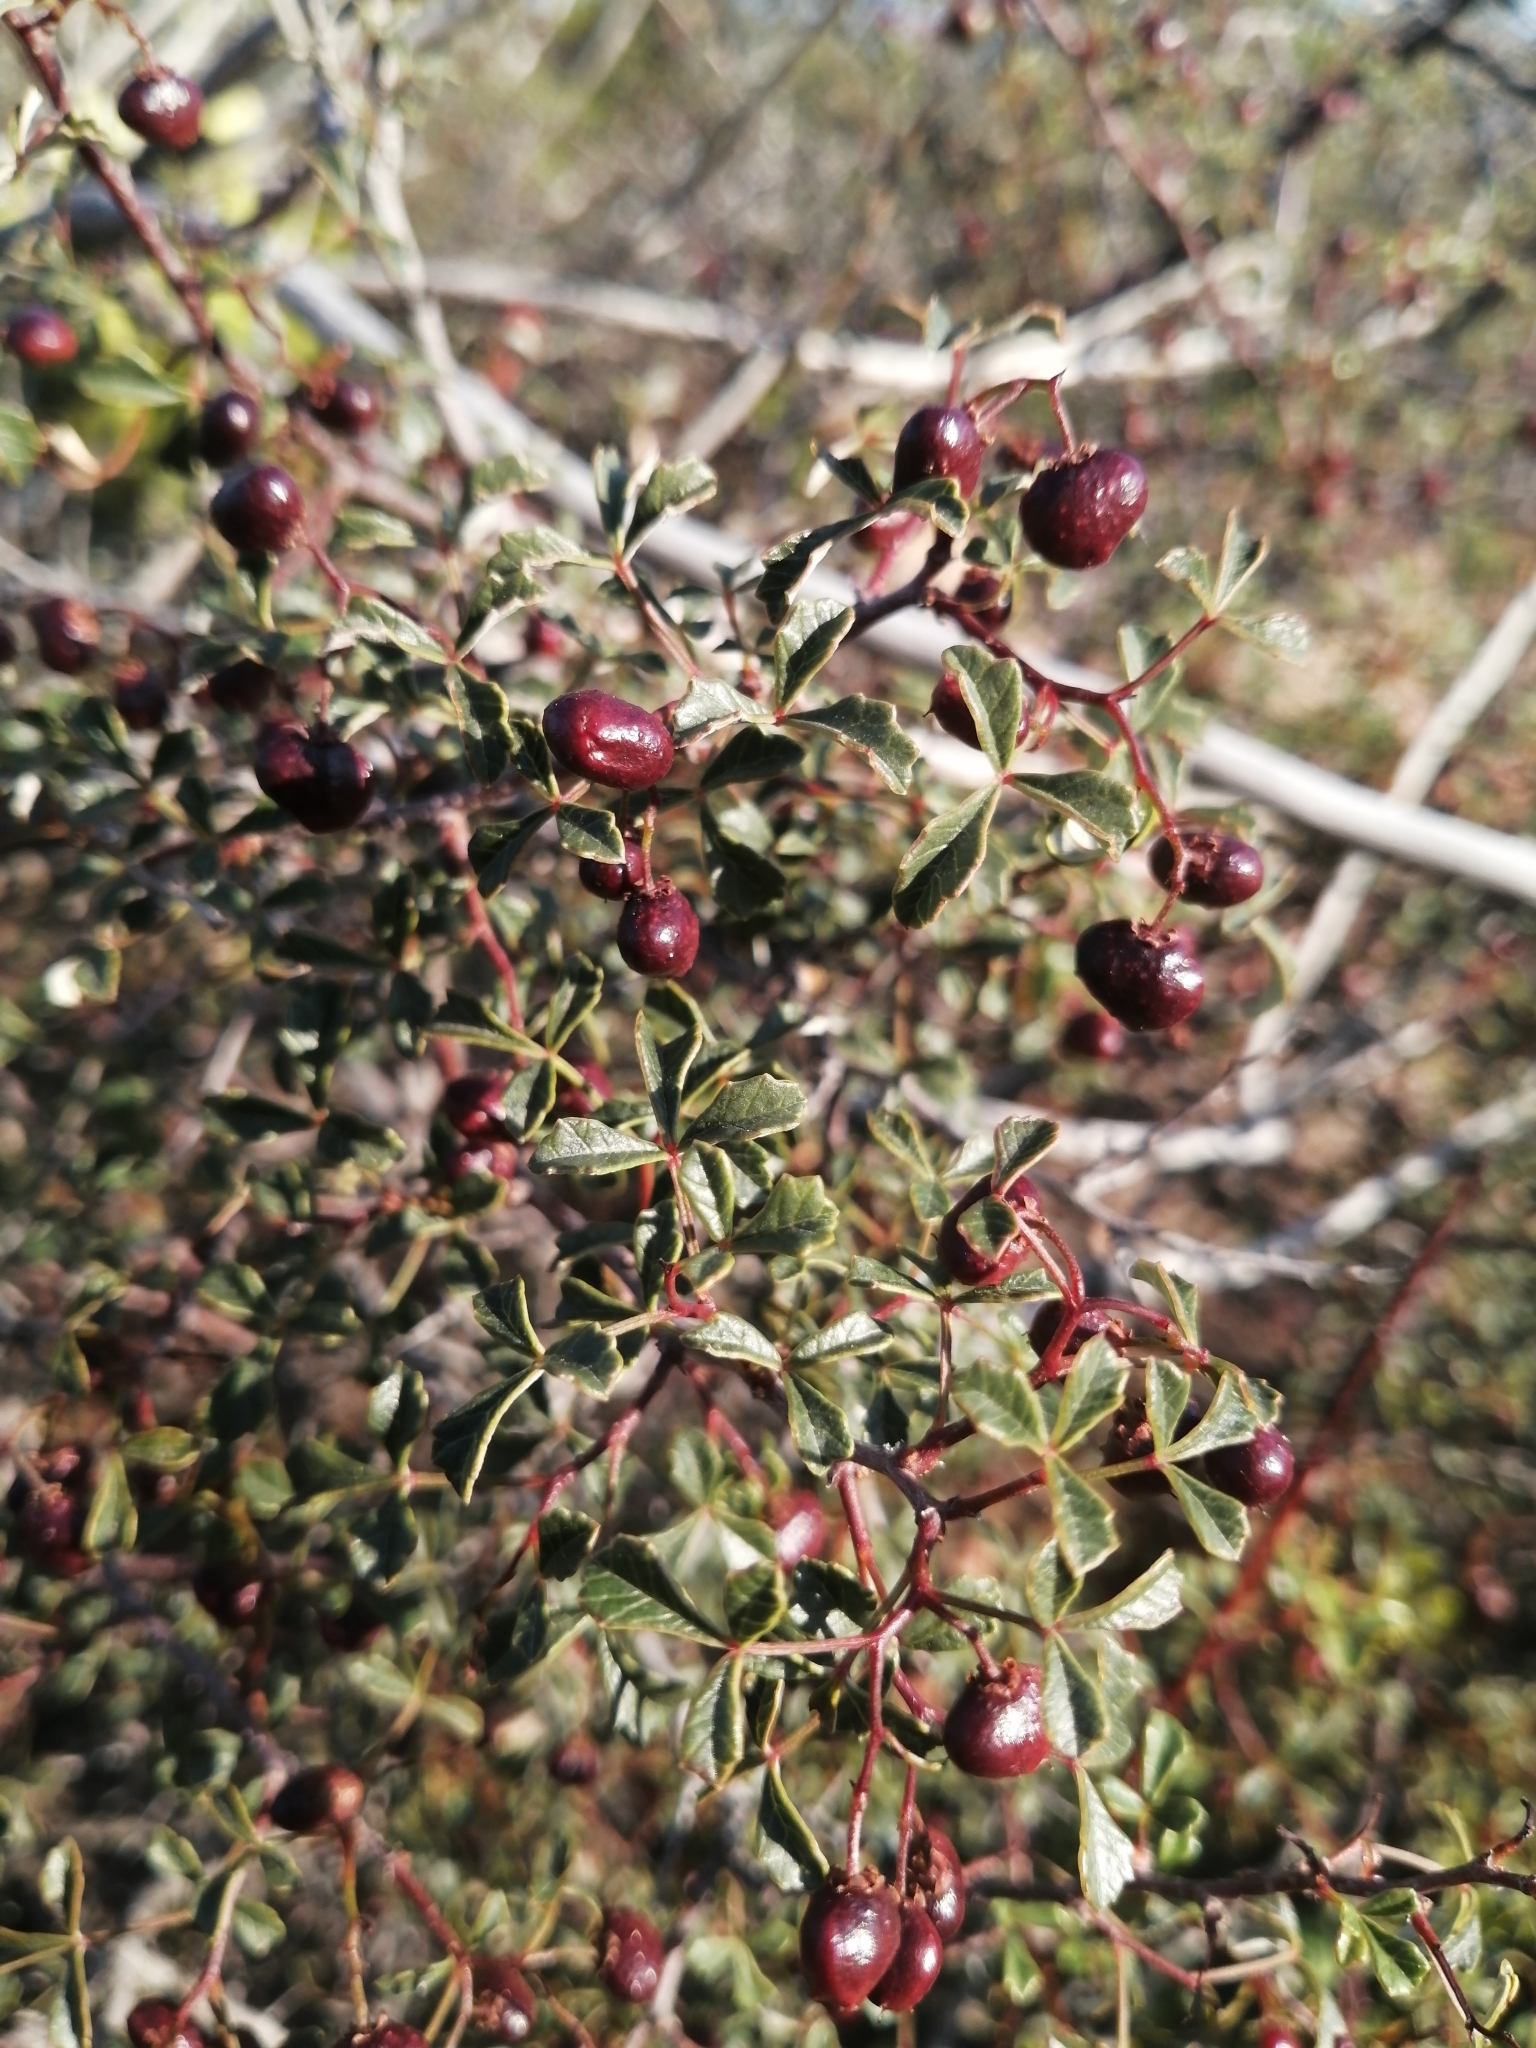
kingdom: Plantae
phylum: Tracheophyta
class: Magnoliopsida
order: Sapindales
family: Anacardiaceae
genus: Searsia
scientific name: Searsia dissecta
